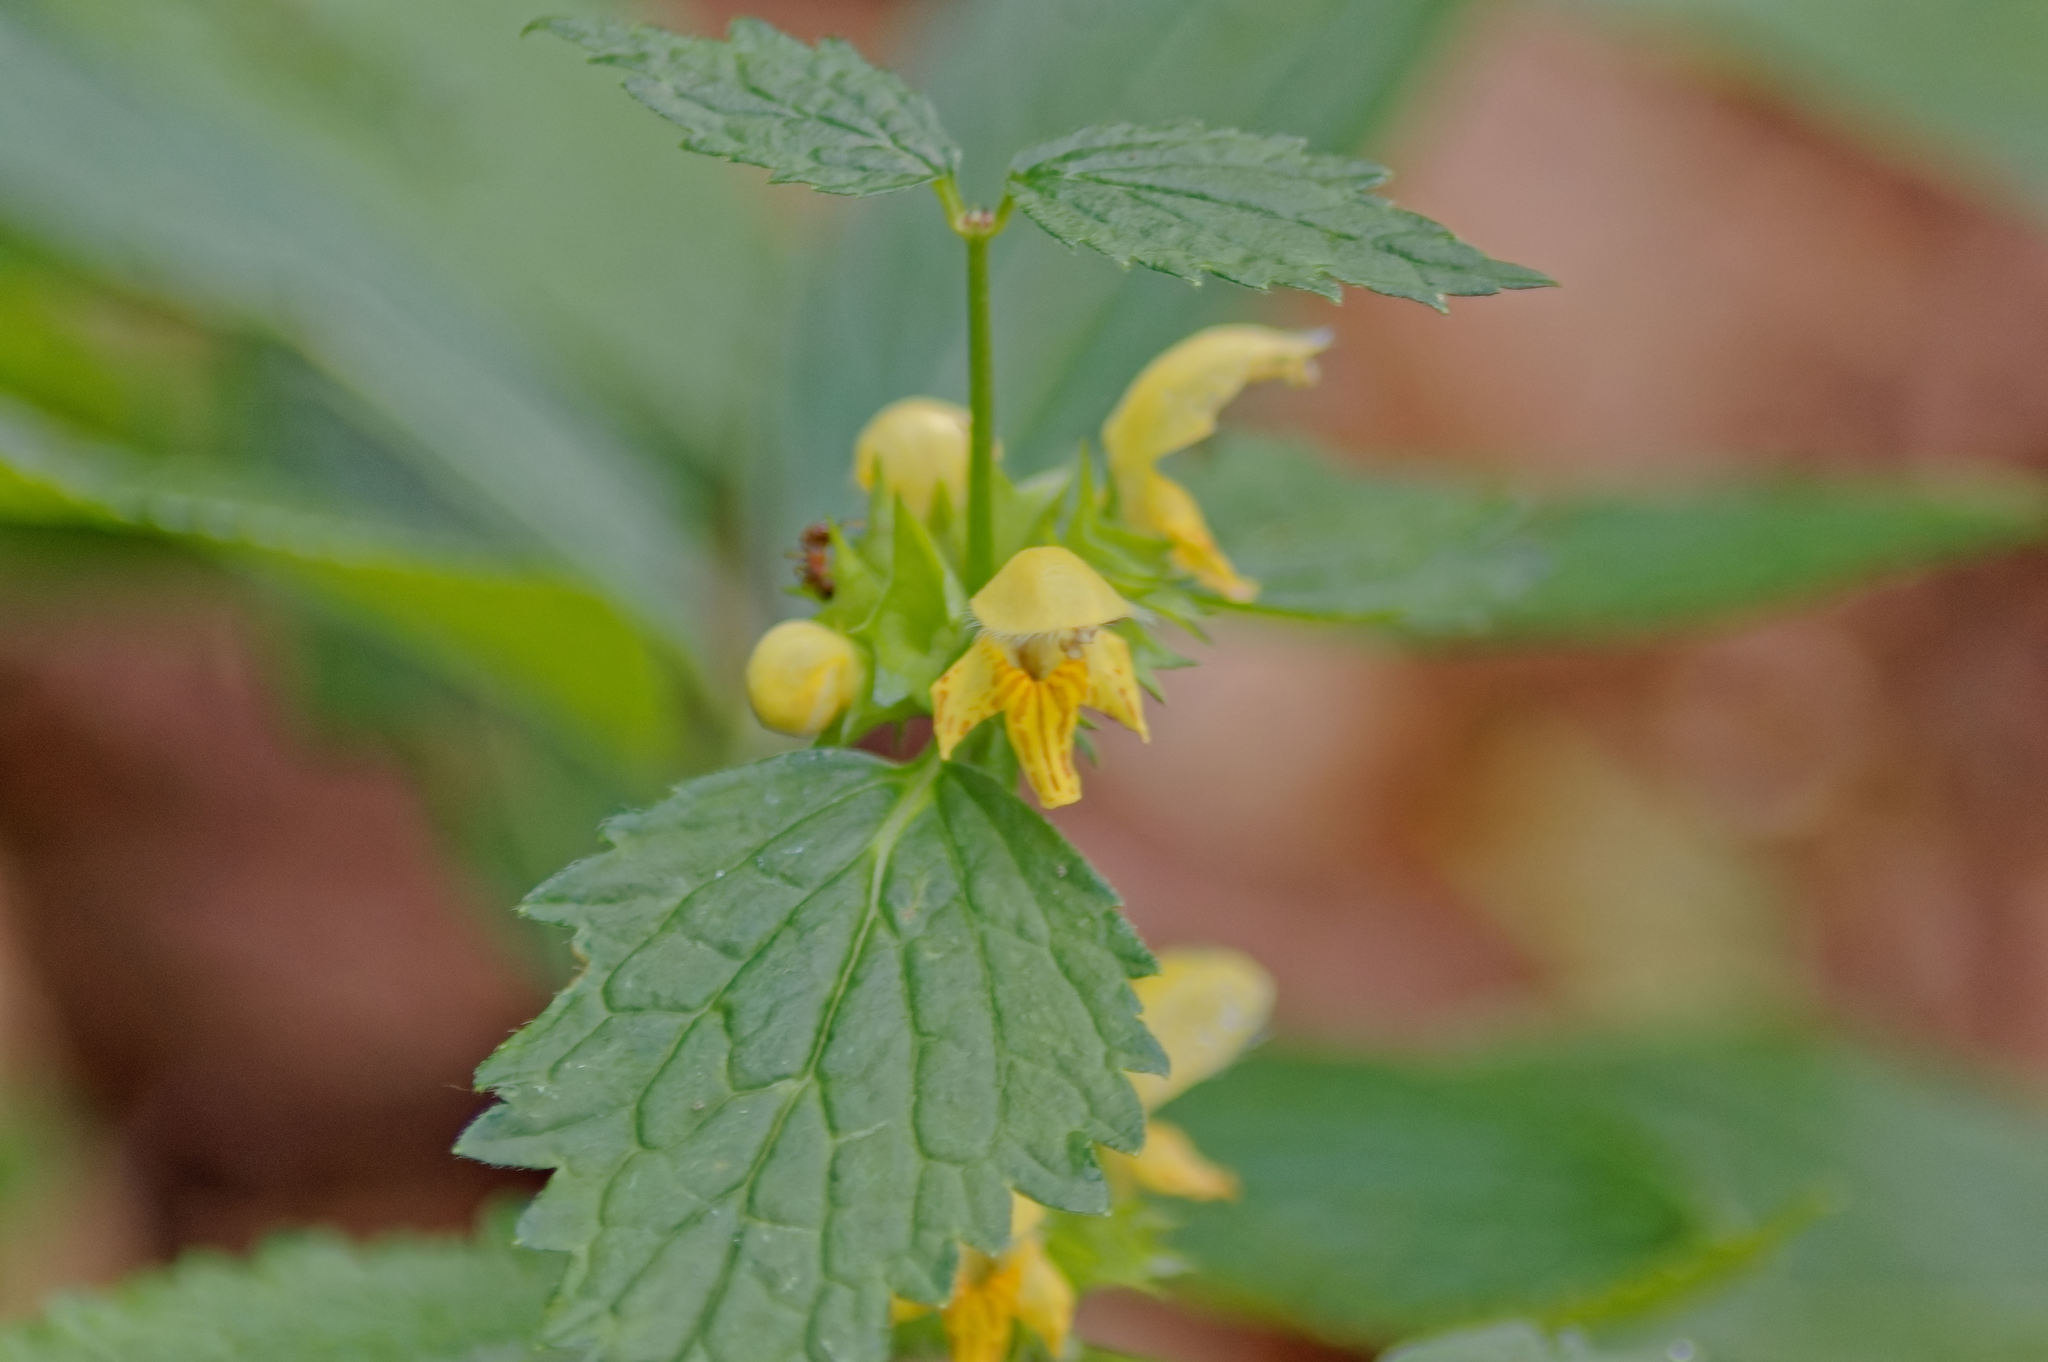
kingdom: Plantae
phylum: Tracheophyta
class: Magnoliopsida
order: Lamiales
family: Lamiaceae
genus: Lamium
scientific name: Lamium galeobdolon
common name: Yellow archangel
